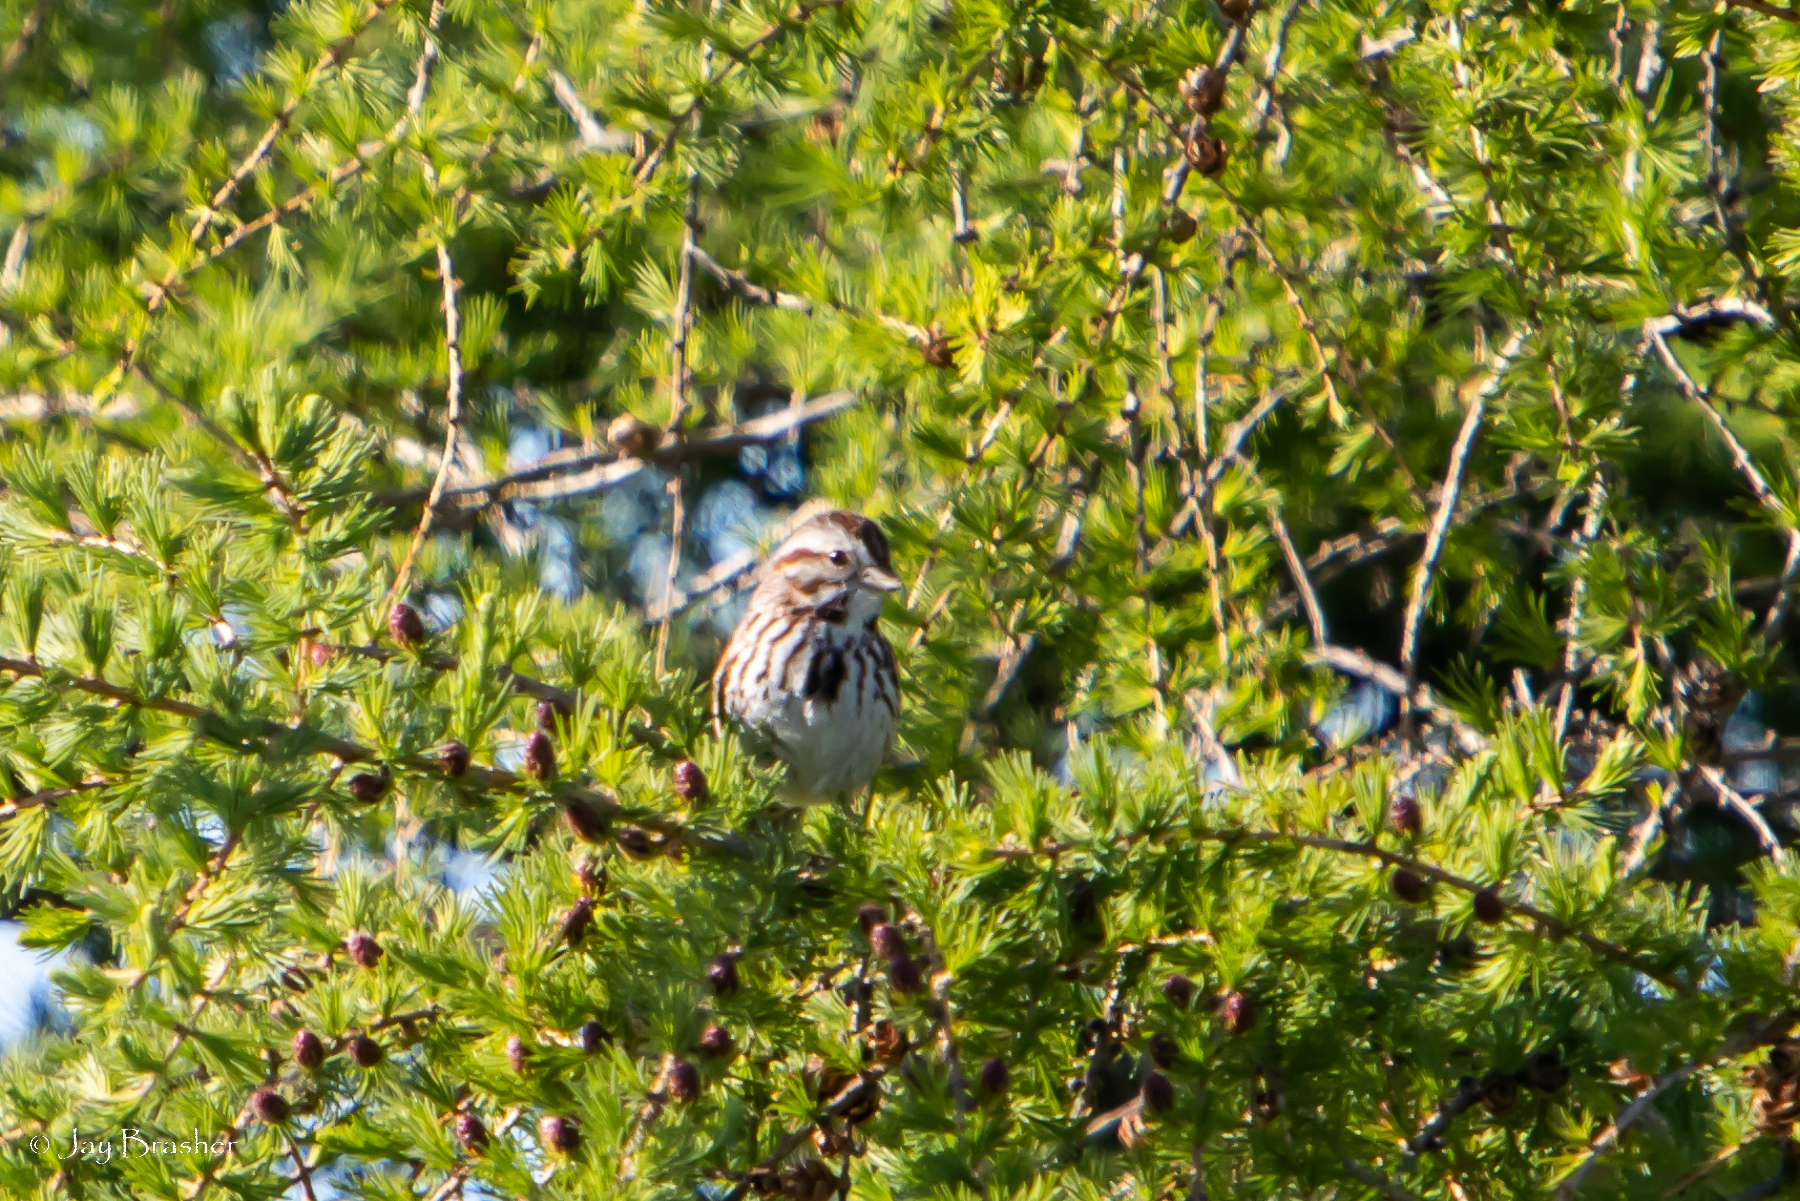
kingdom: Animalia
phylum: Chordata
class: Aves
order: Passeriformes
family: Passerellidae
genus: Melospiza
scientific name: Melospiza melodia
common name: Song sparrow
